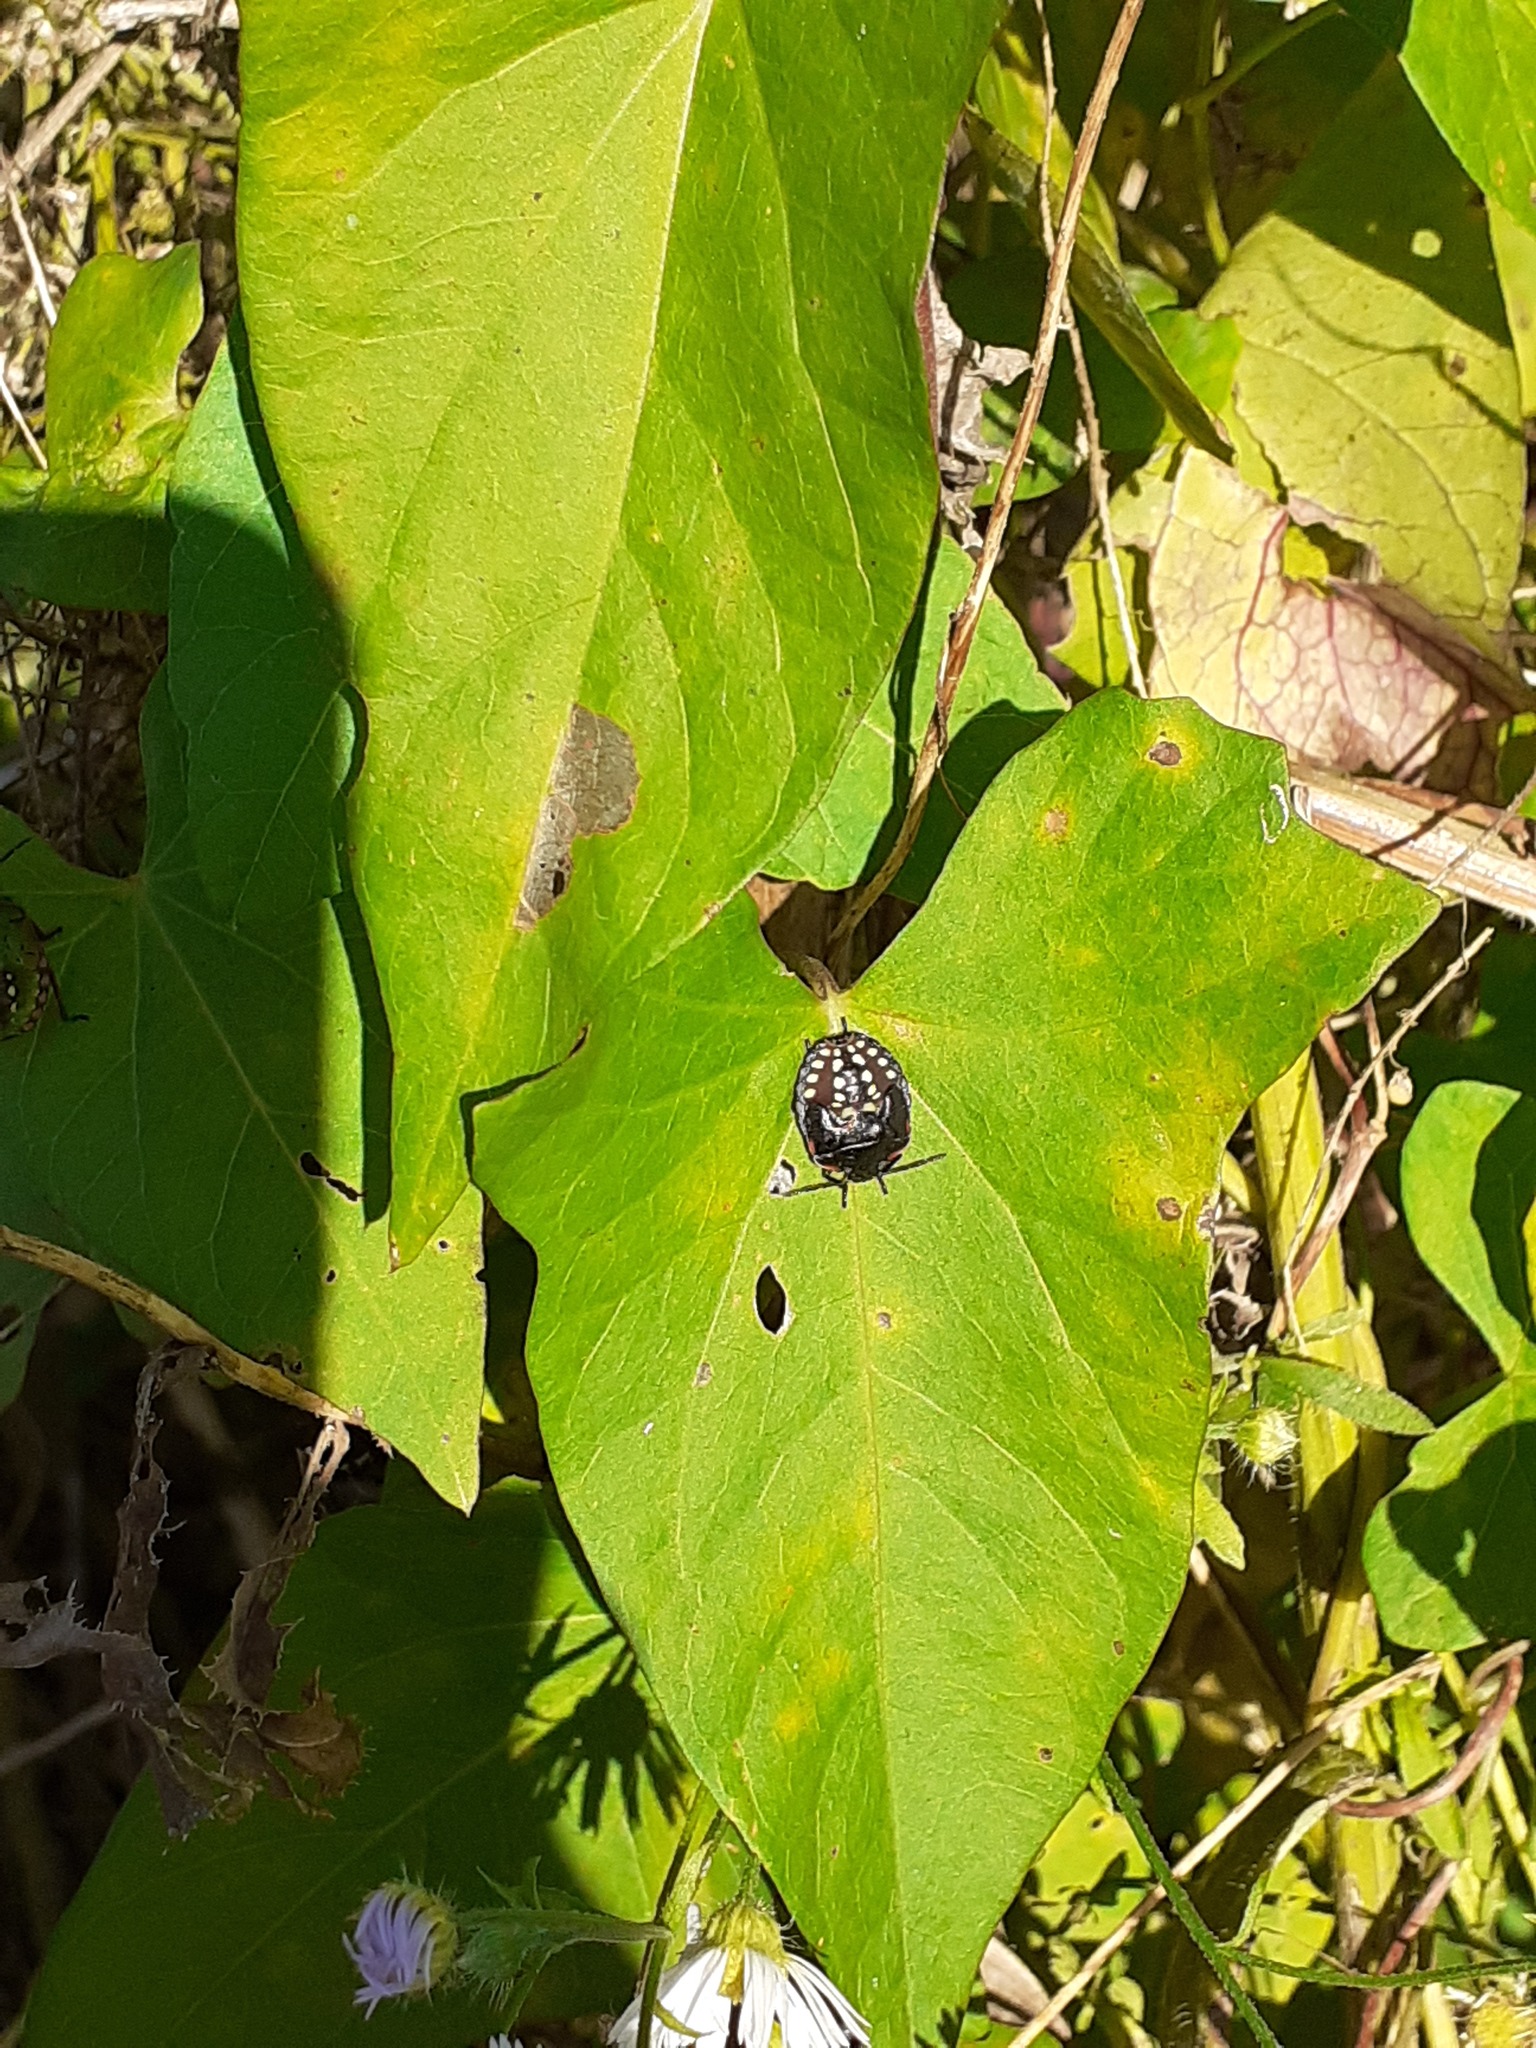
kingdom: Animalia
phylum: Arthropoda
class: Insecta
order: Hemiptera
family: Pentatomidae
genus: Nezara
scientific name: Nezara viridula
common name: Southern green stink bug
